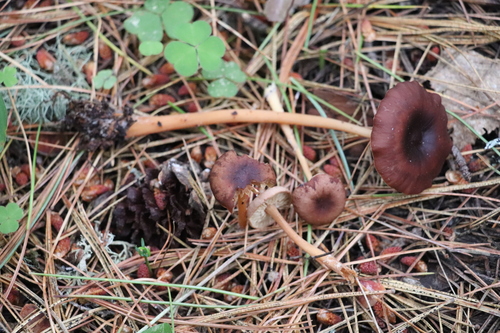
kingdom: Fungi
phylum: Basidiomycota
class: Agaricomycetes
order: Agaricales
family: Omphalotaceae
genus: Gymnopus
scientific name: Gymnopus ocior
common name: Spring toughshank
